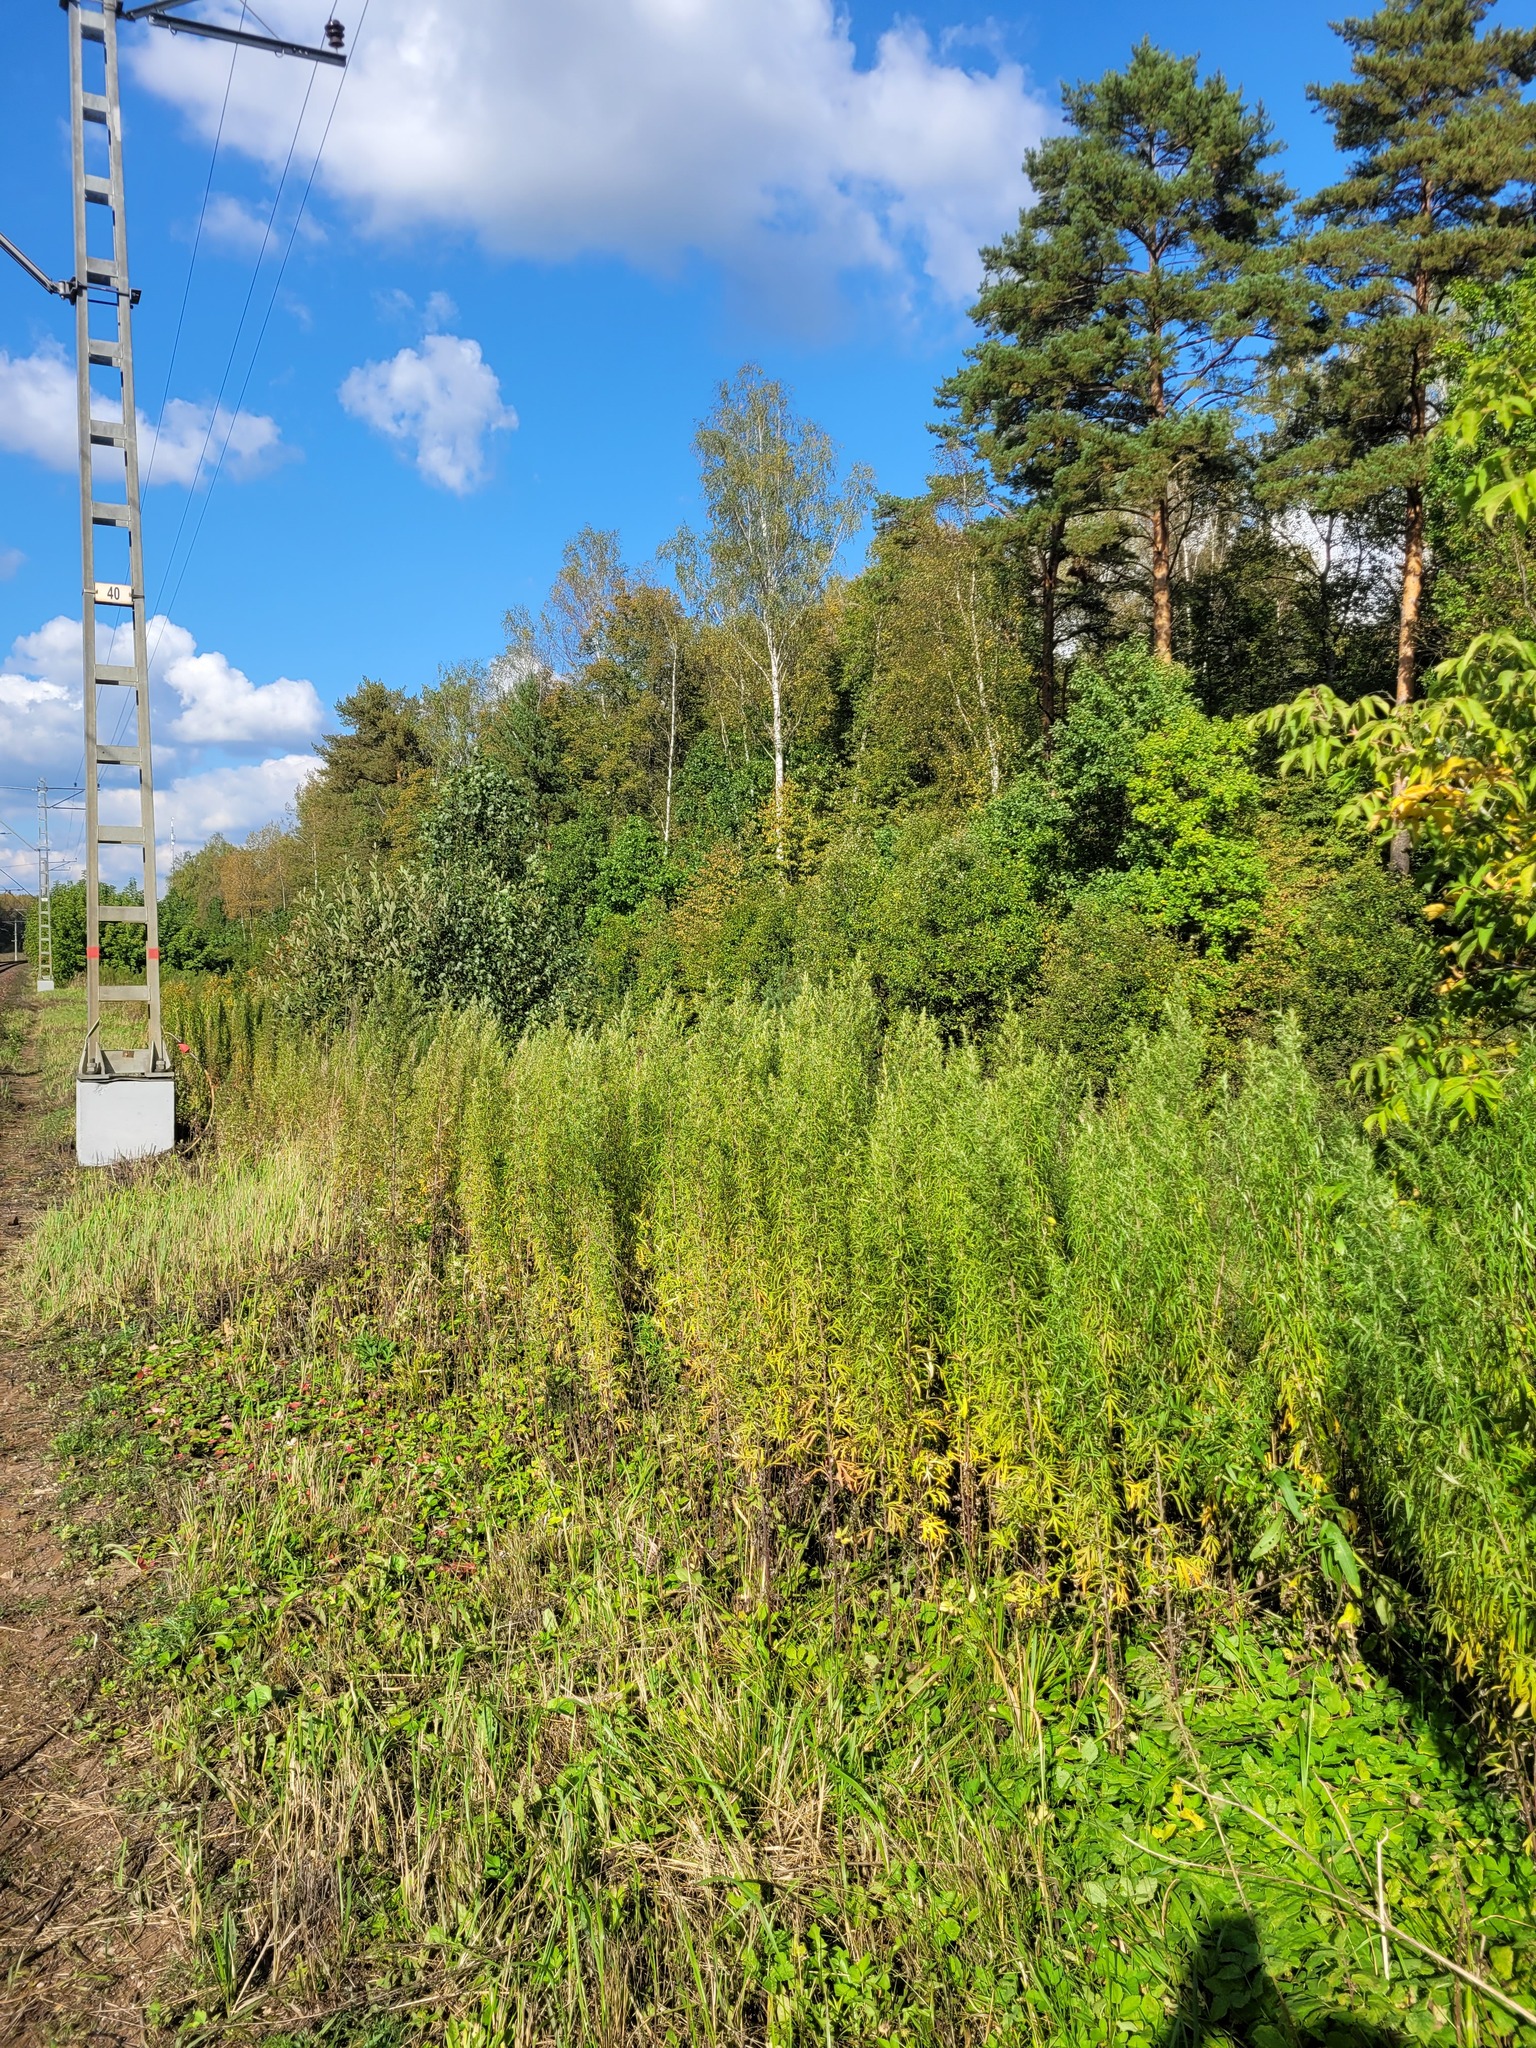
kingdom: Plantae
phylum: Tracheophyta
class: Magnoliopsida
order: Asterales
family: Asteraceae
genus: Artemisia
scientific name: Artemisia umbrosa
